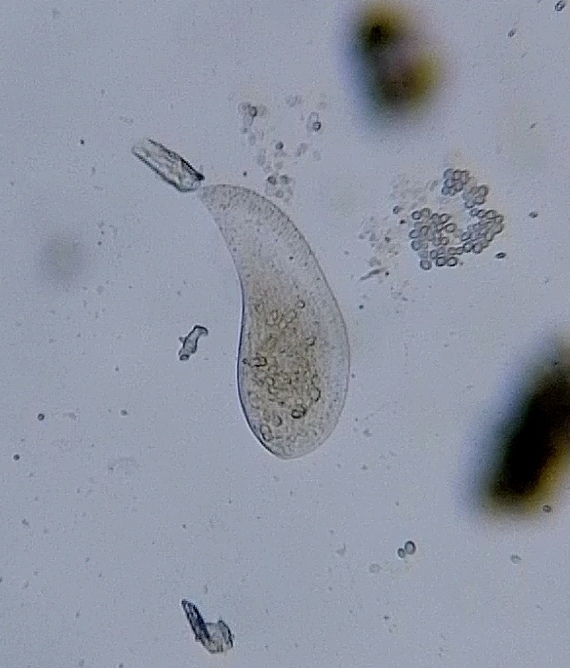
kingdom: Chromista
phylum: Ciliophora
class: Gymnostomatea
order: Spathidiida
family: Spathidiidae
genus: Bryophyllum
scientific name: Bryophyllum loxophylliforme
